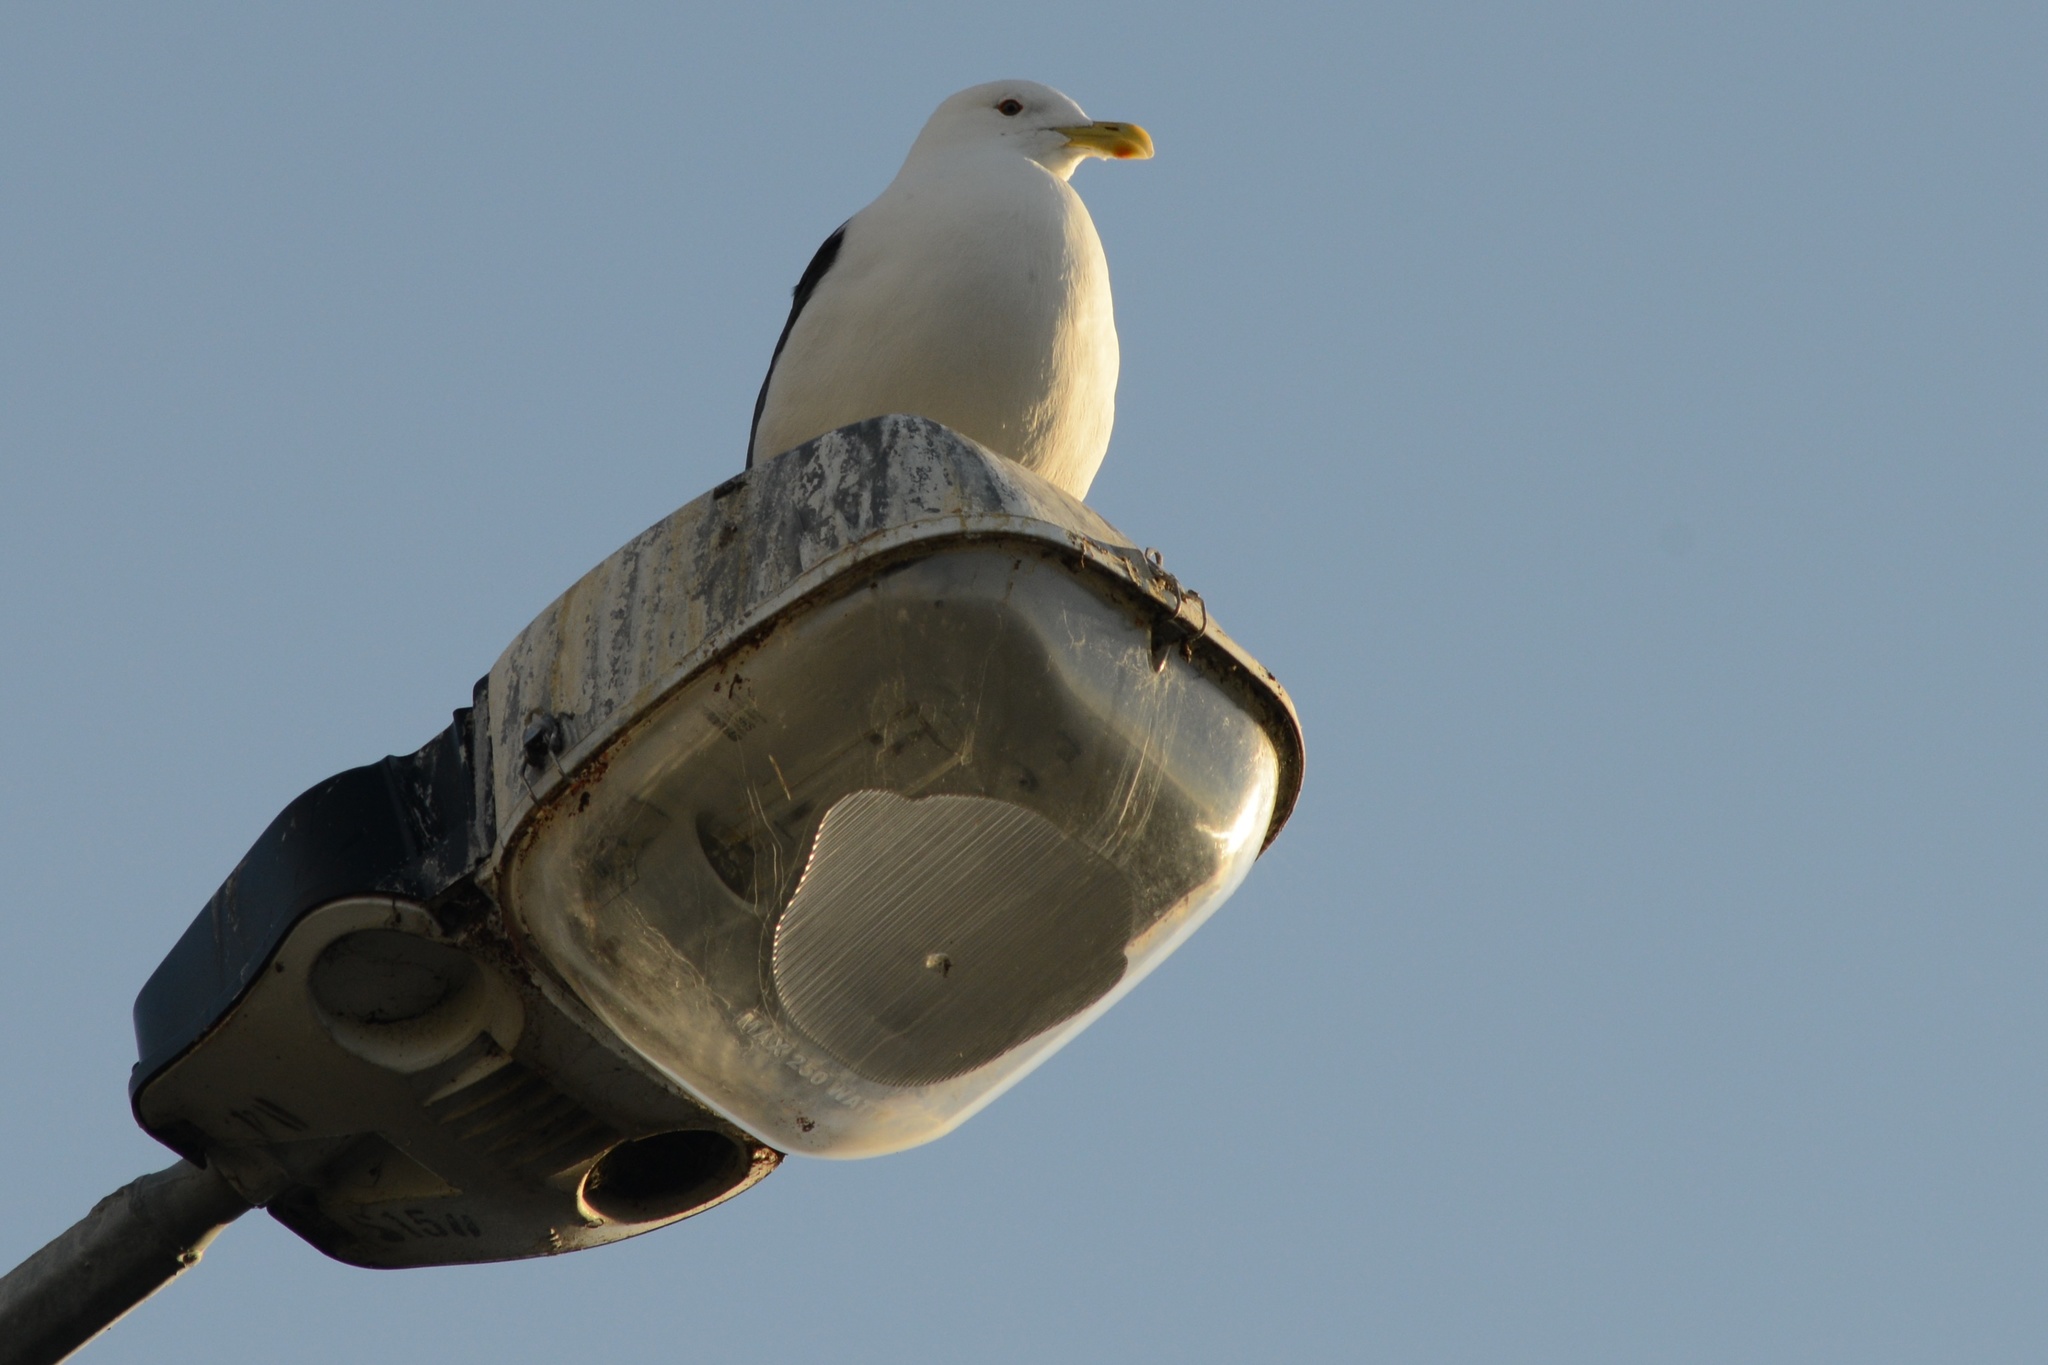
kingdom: Animalia
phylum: Chordata
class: Aves
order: Charadriiformes
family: Laridae
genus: Larus
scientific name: Larus dominicanus
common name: Kelp gull
